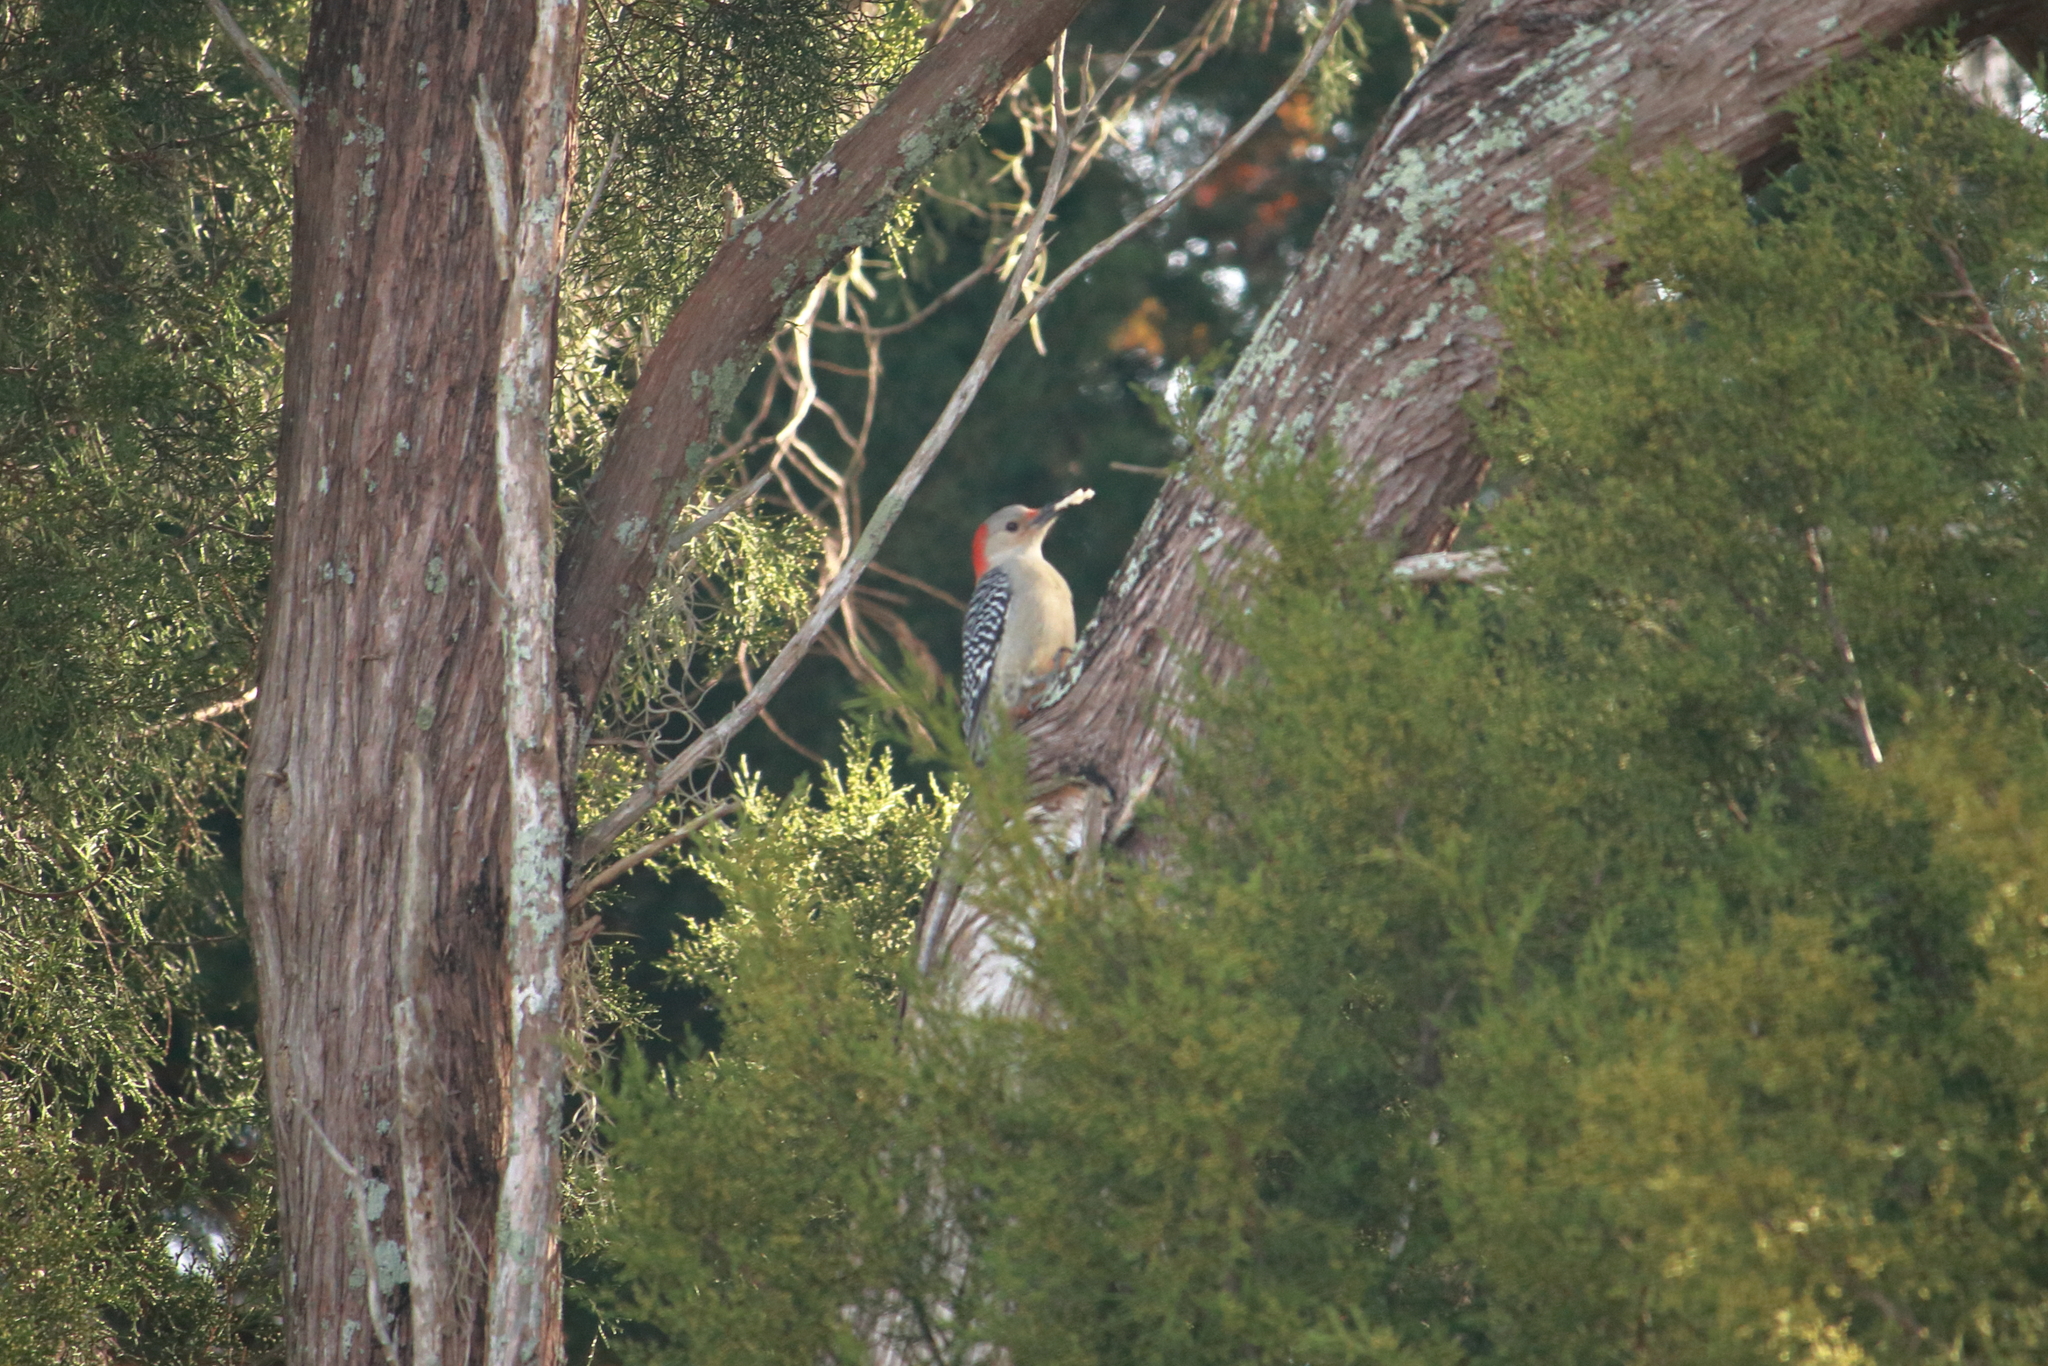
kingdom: Animalia
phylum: Chordata
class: Aves
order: Piciformes
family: Picidae
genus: Melanerpes
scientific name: Melanerpes carolinus
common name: Red-bellied woodpecker
